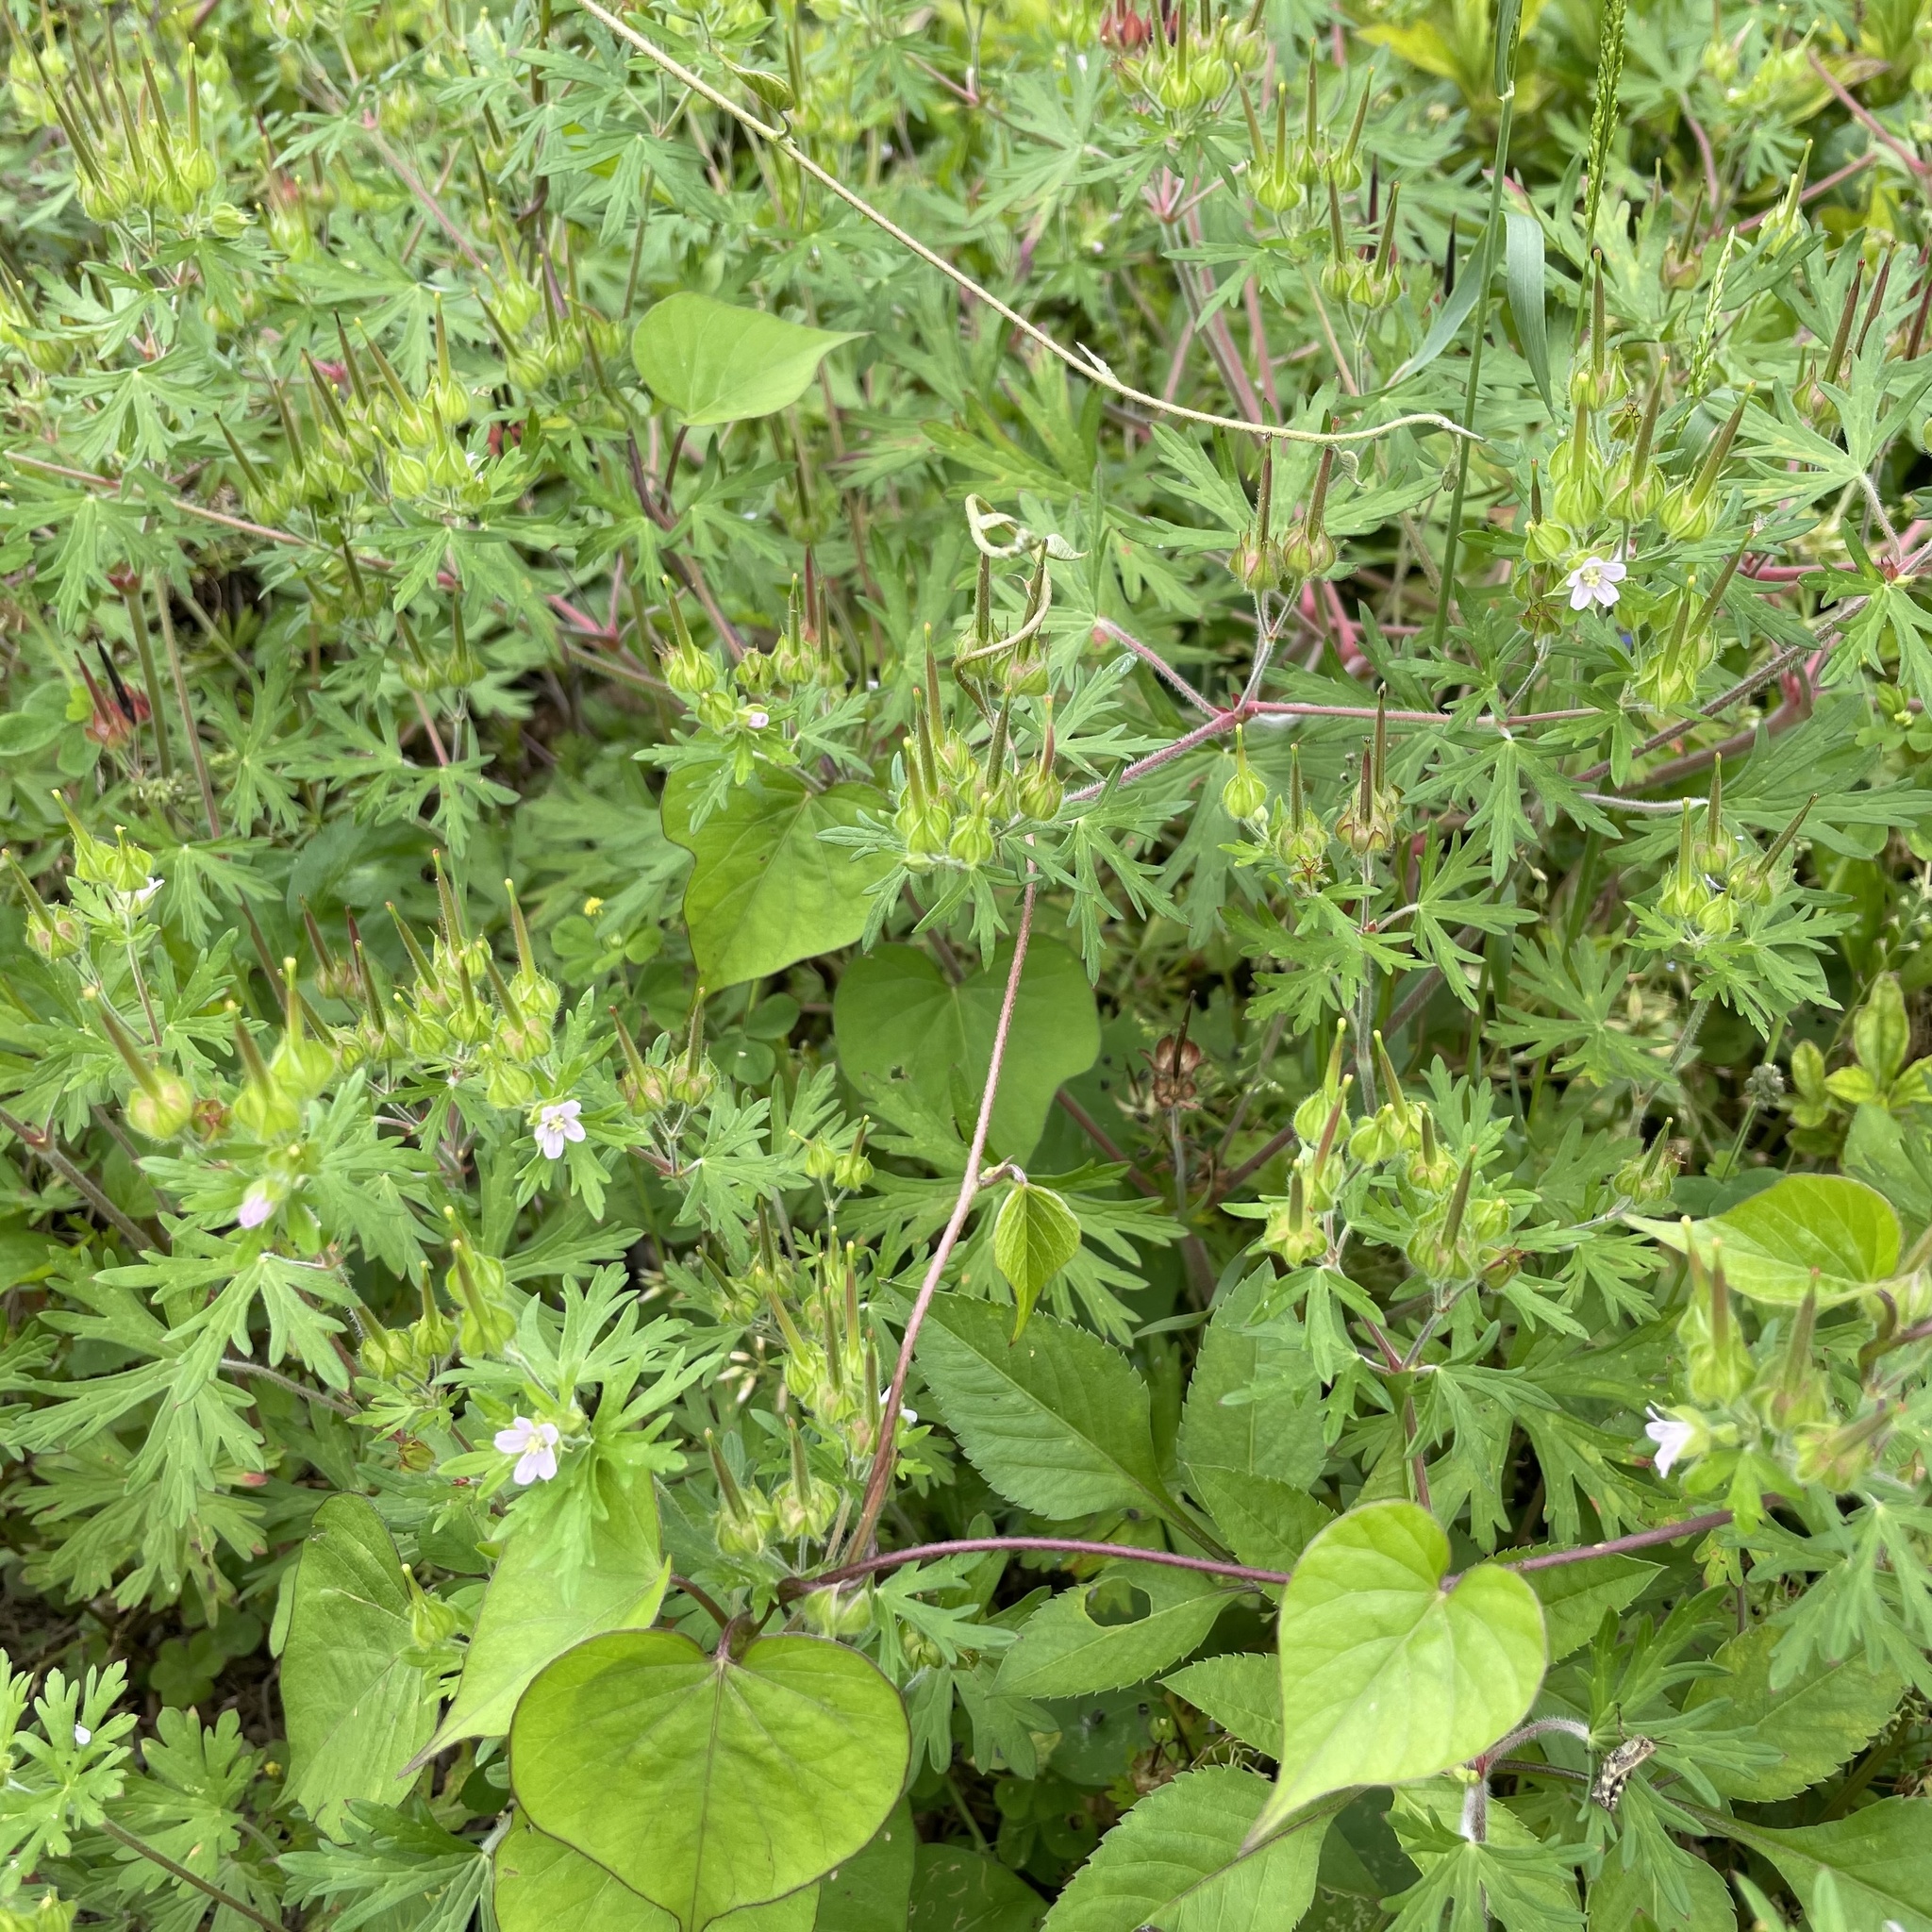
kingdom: Plantae
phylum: Tracheophyta
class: Magnoliopsida
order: Geraniales
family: Geraniaceae
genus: Geranium
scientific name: Geranium carolinianum
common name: Carolina crane's-bill
